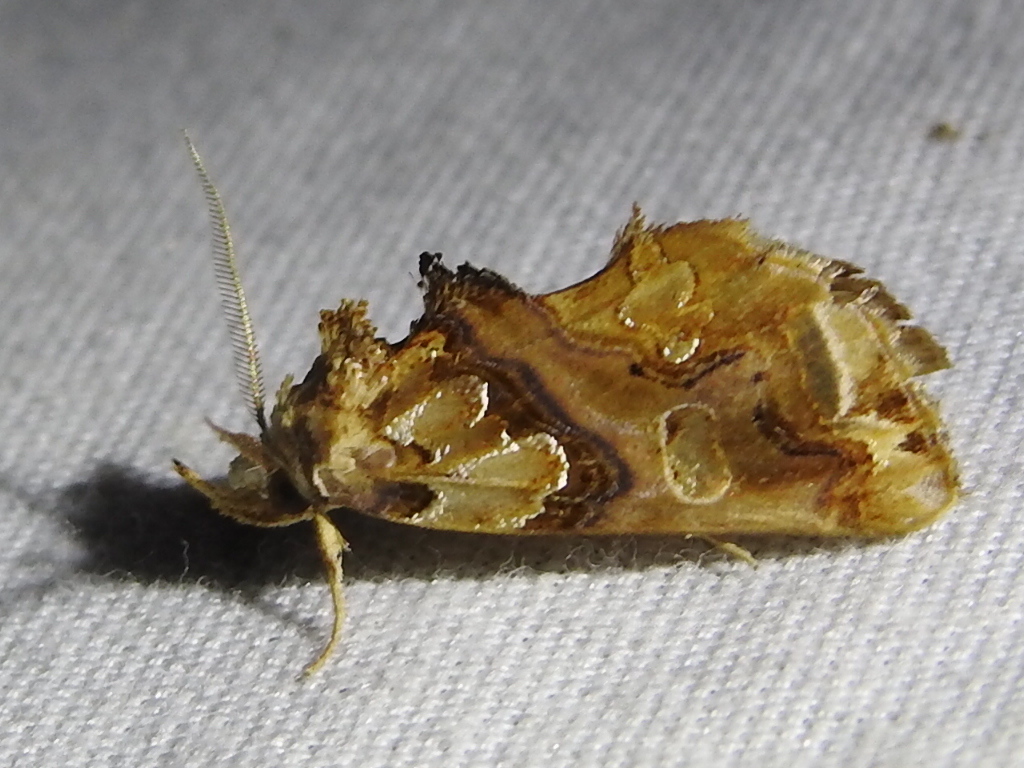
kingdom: Animalia
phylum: Arthropoda
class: Insecta
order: Lepidoptera
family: Erebidae
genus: Plusiodonta
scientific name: Plusiodonta compressipalpis
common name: Moonseed moth
